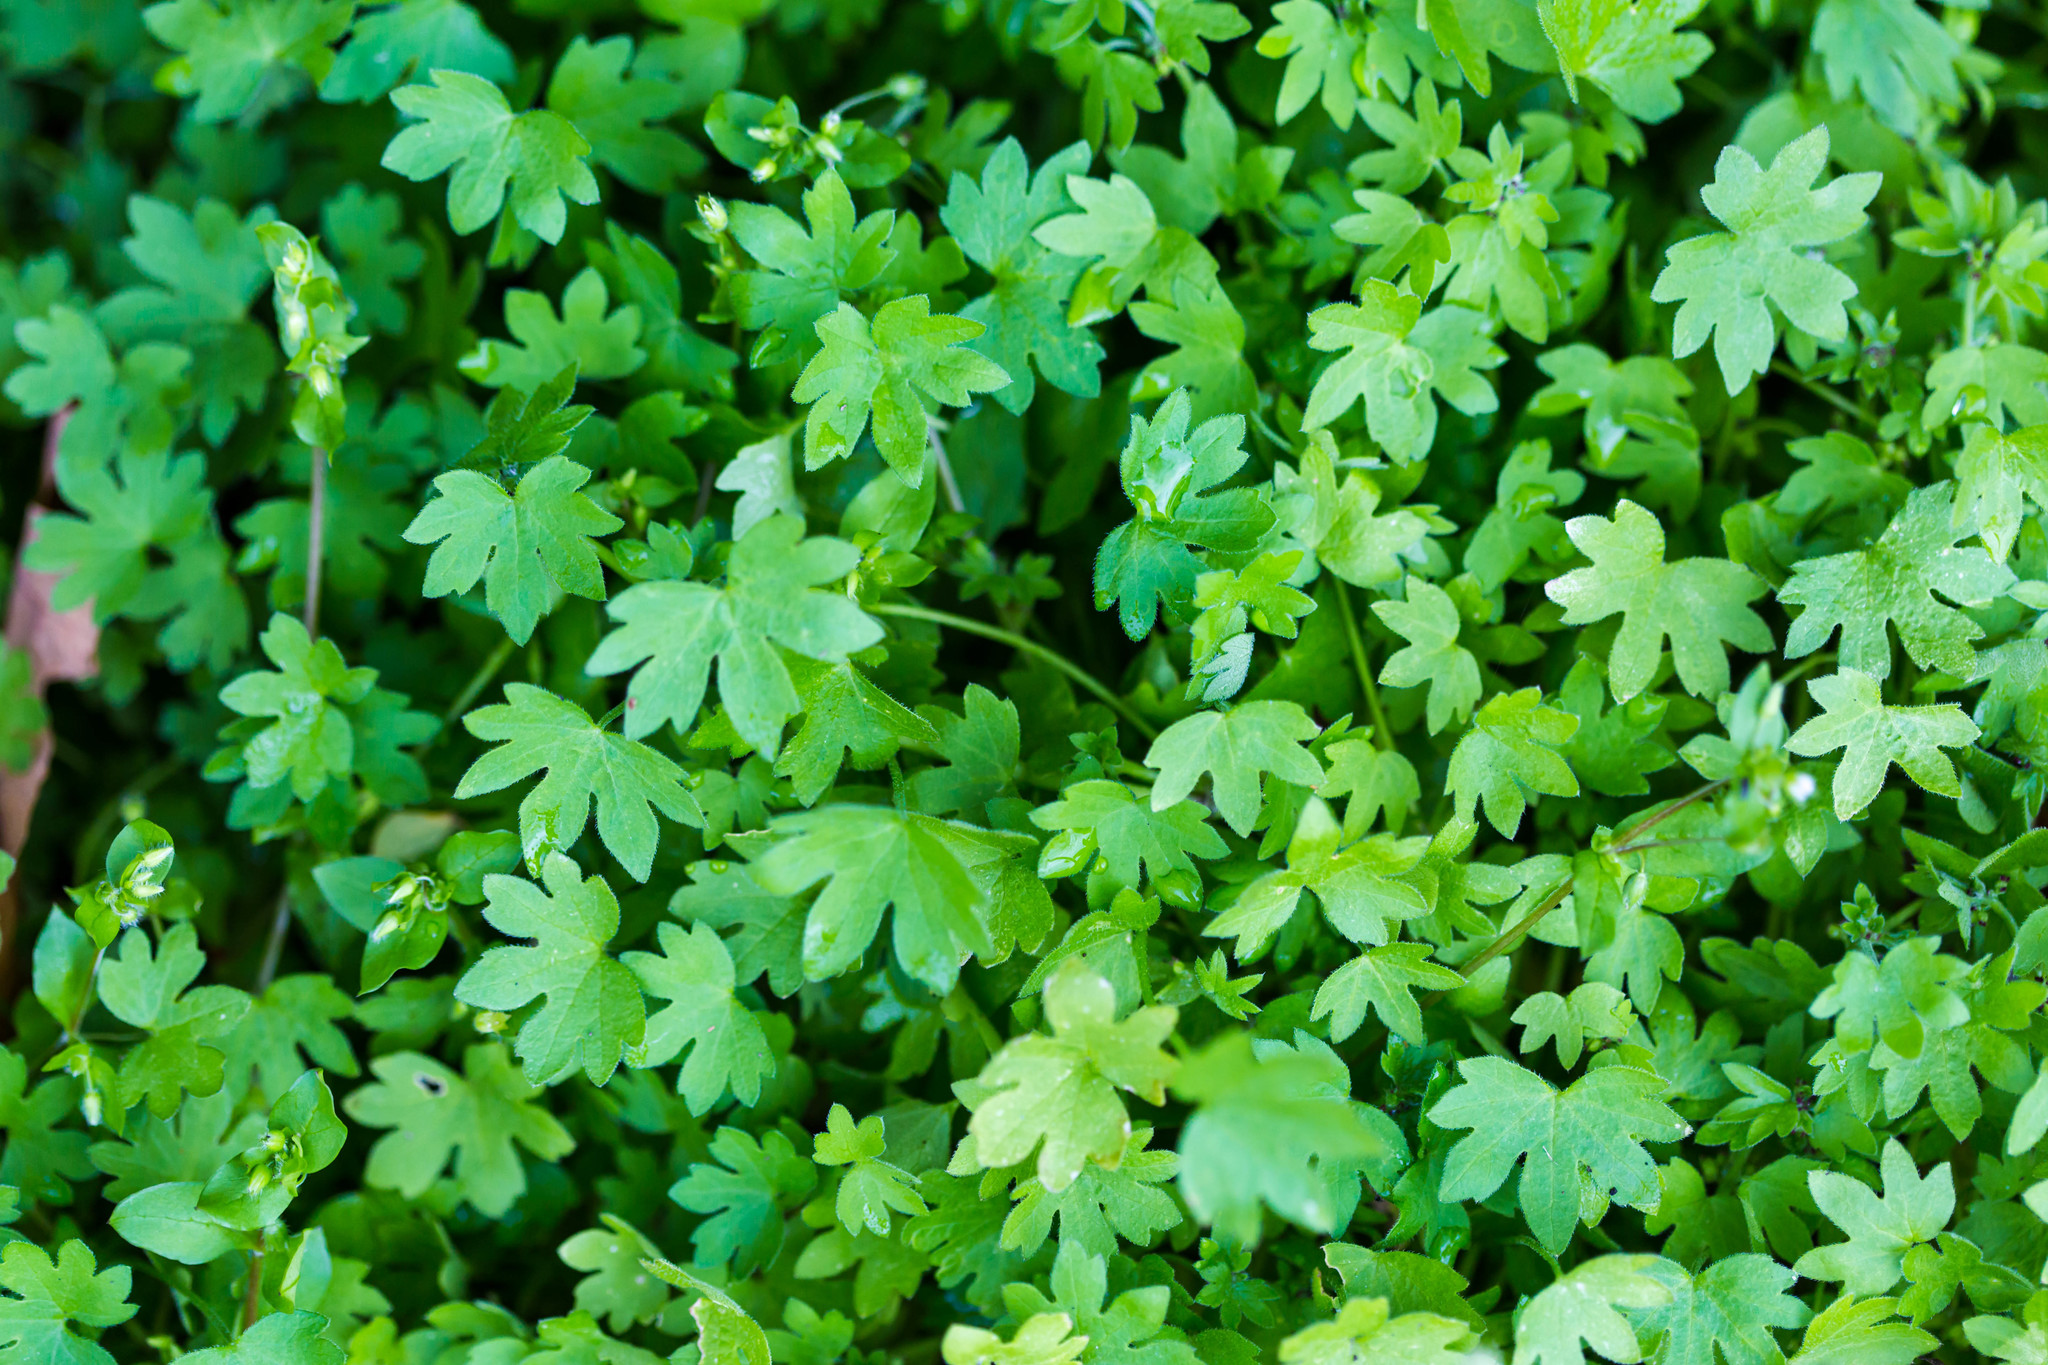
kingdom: Plantae
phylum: Tracheophyta
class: Magnoliopsida
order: Apiales
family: Apiaceae
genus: Bowlesia
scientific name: Bowlesia incana
